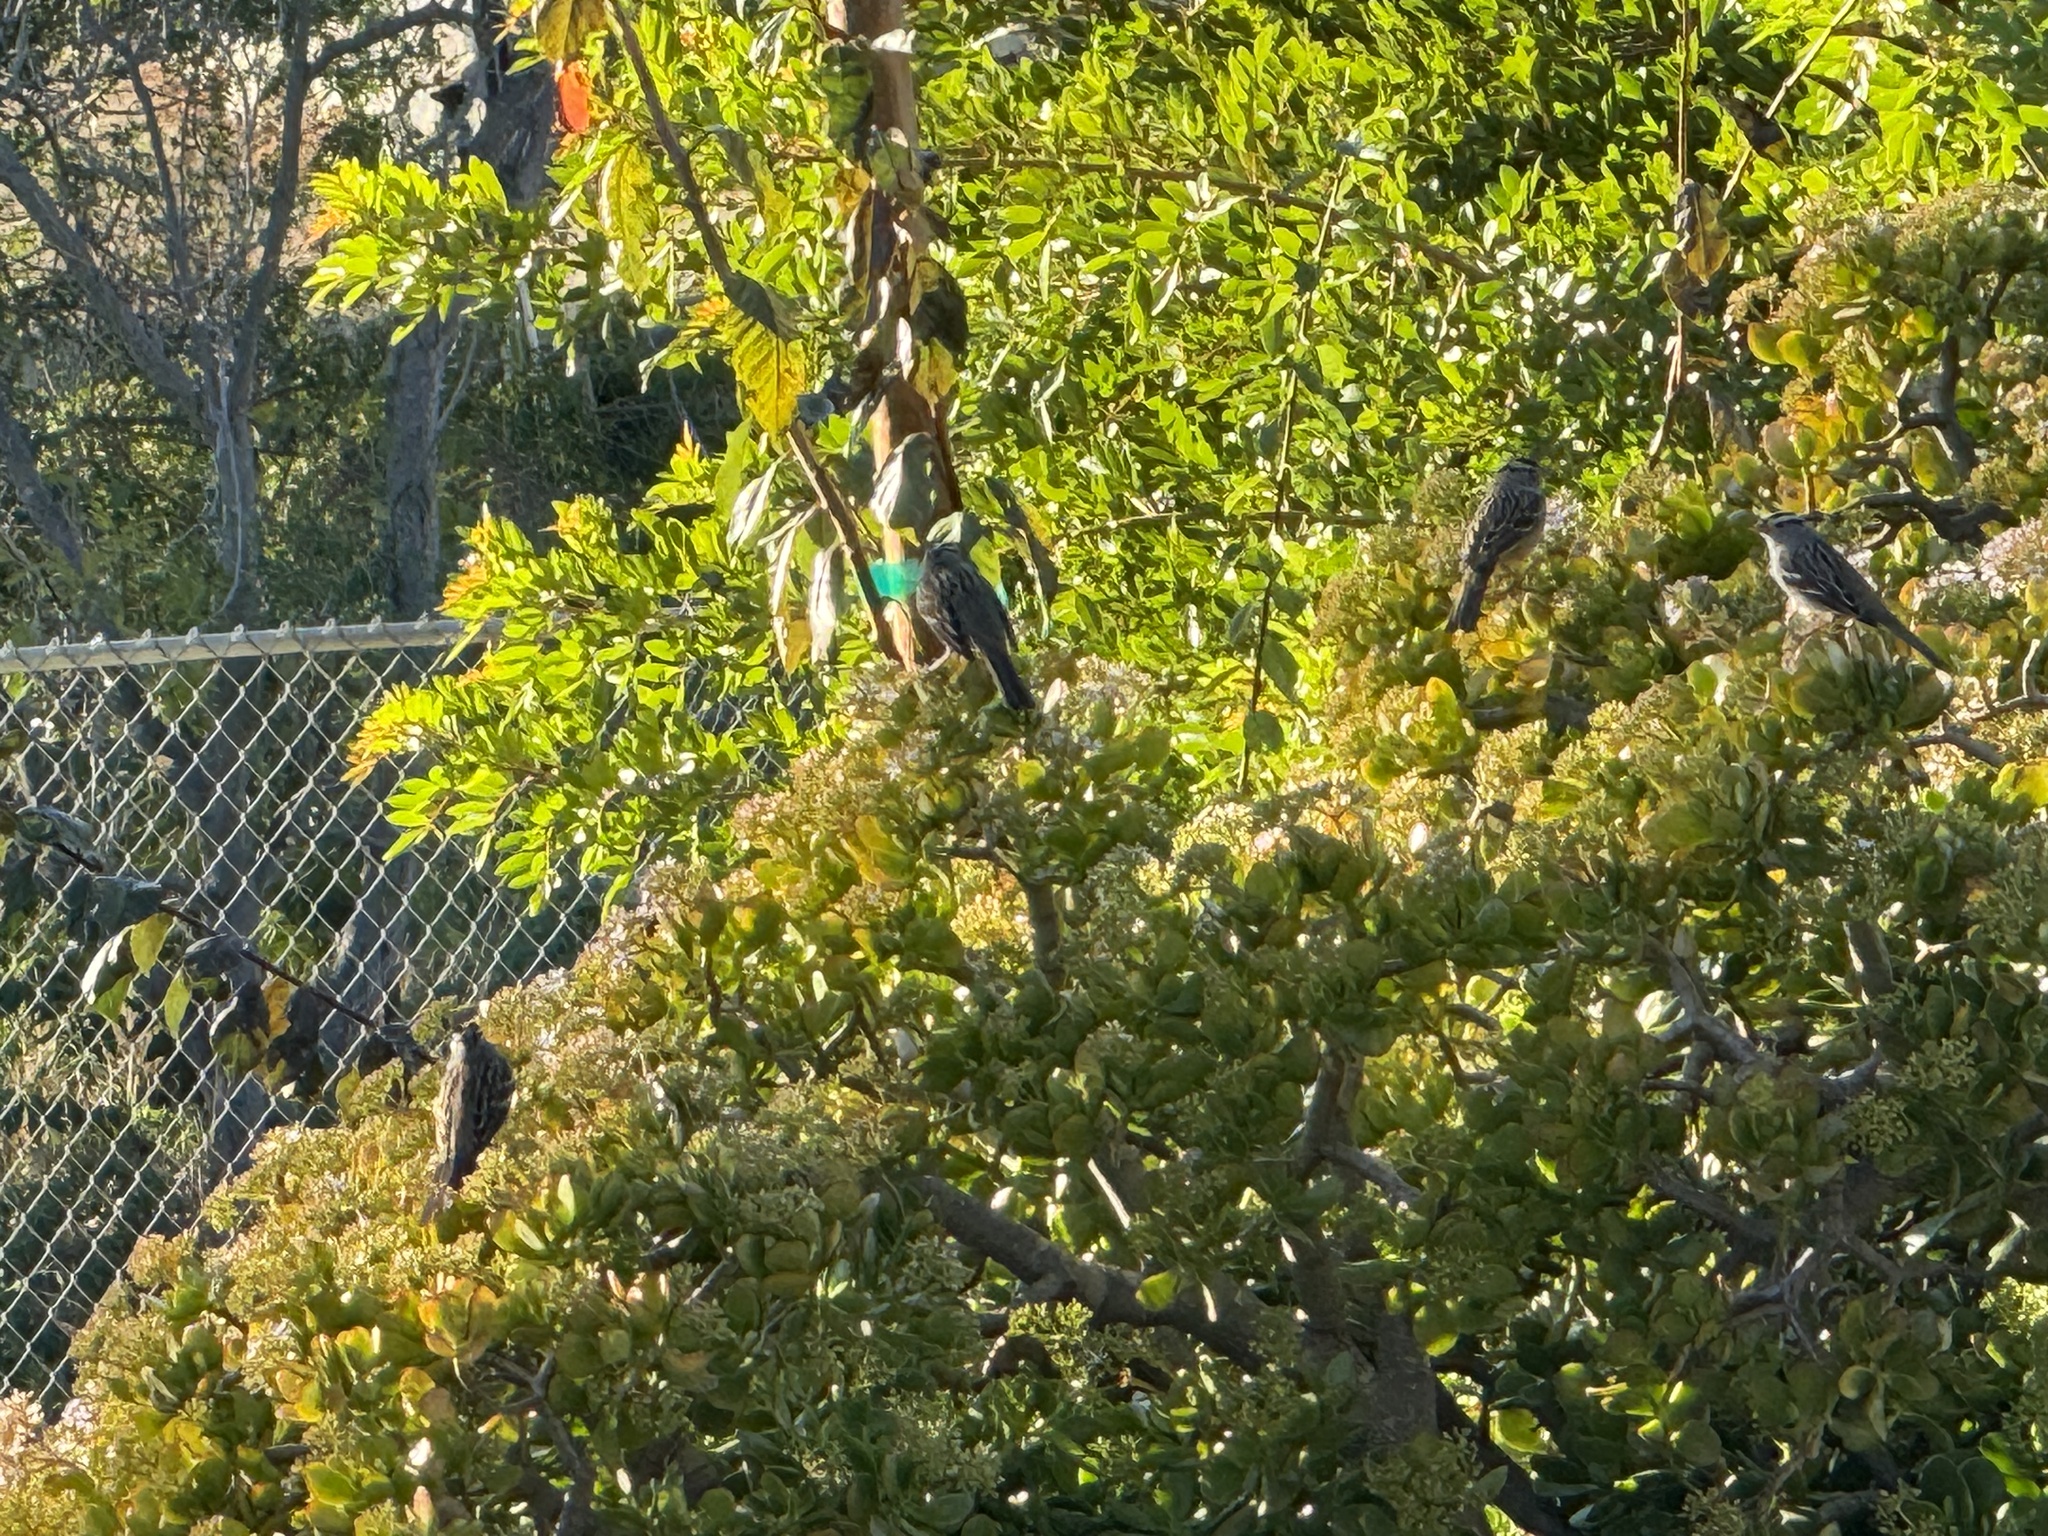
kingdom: Animalia
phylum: Chordata
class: Aves
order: Passeriformes
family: Passerellidae
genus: Zonotrichia
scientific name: Zonotrichia leucophrys
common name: White-crowned sparrow
